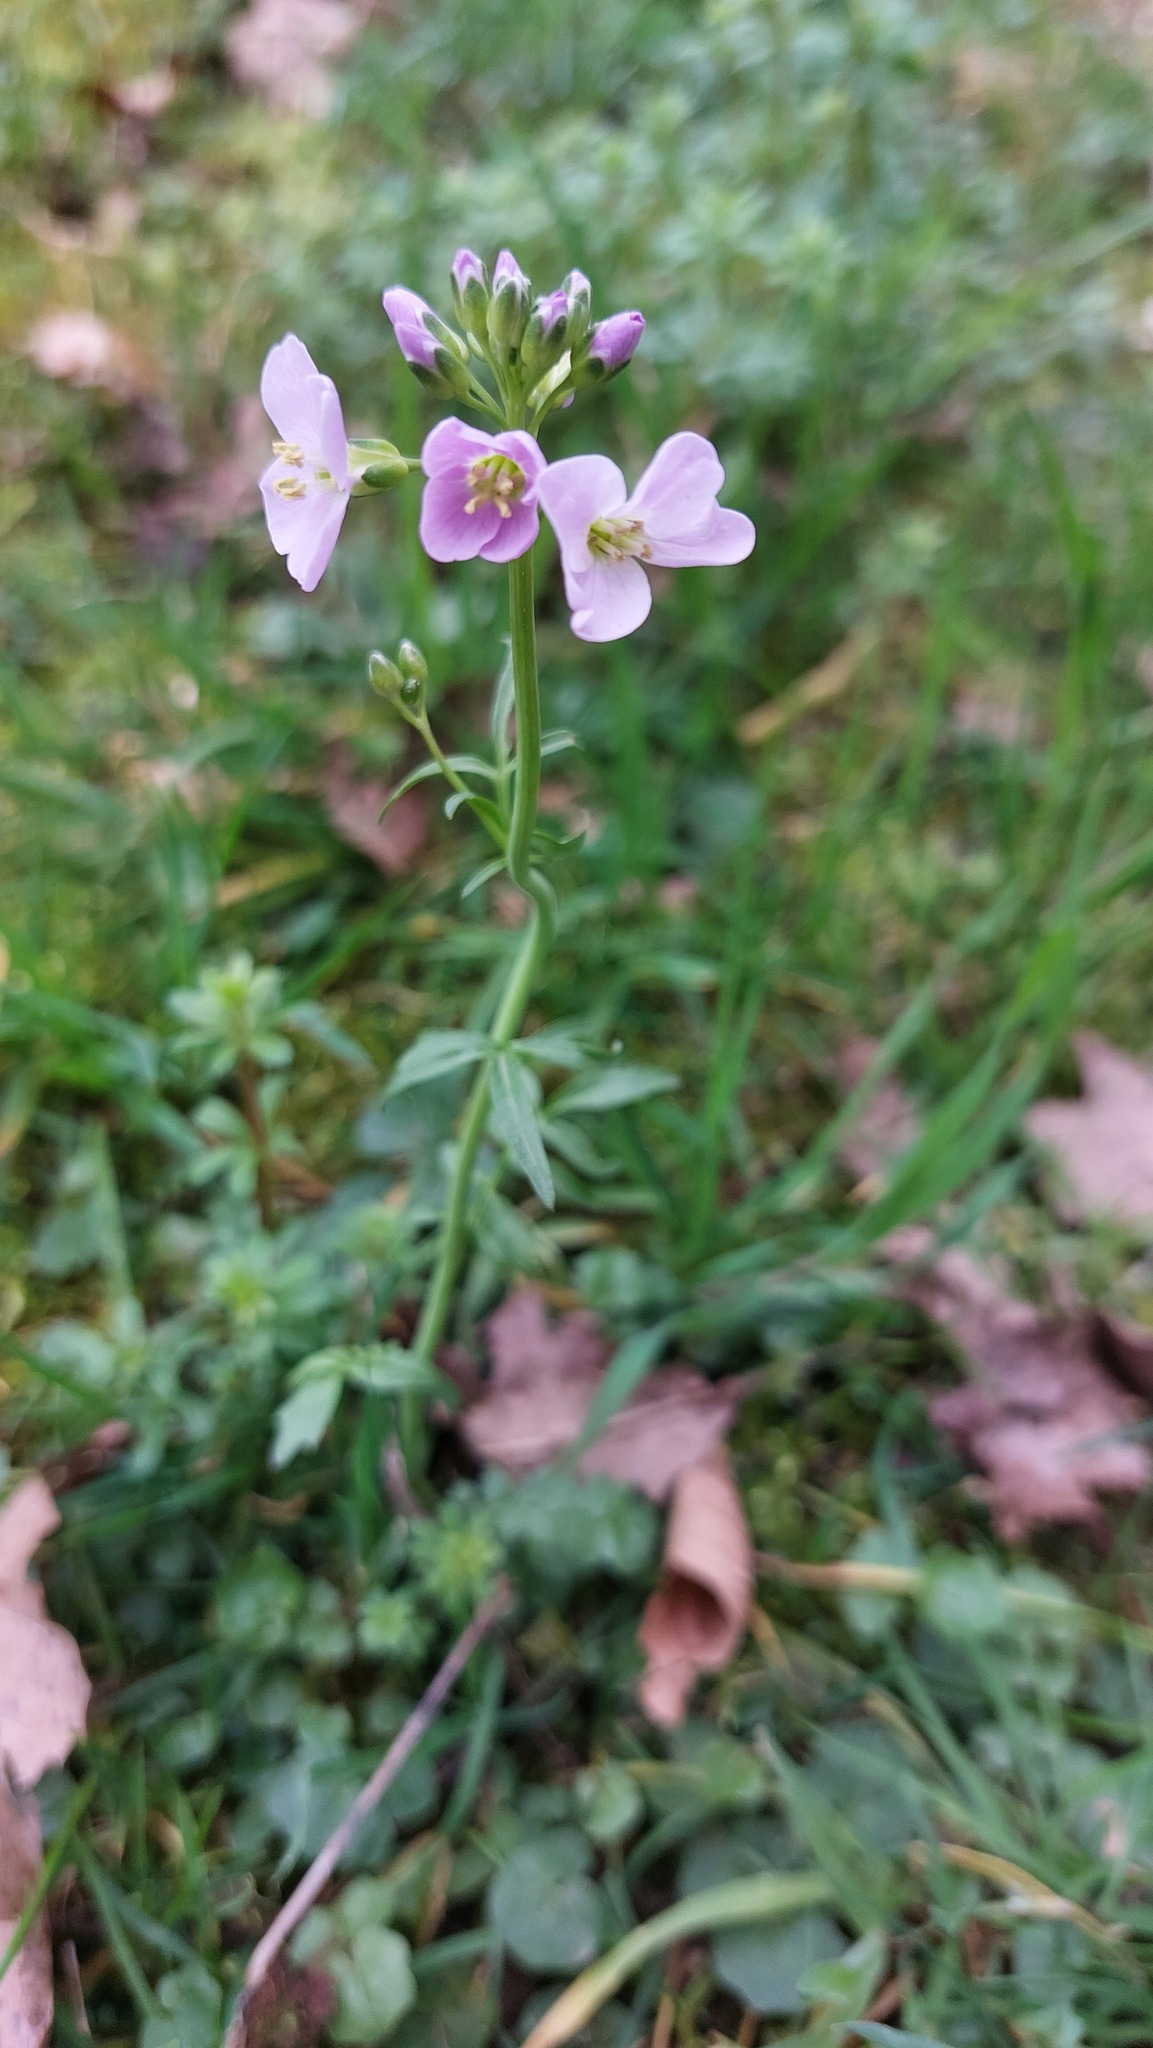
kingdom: Plantae
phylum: Tracheophyta
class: Magnoliopsida
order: Brassicales
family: Brassicaceae
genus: Cardamine
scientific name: Cardamine pratensis
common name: Cuckoo flower
